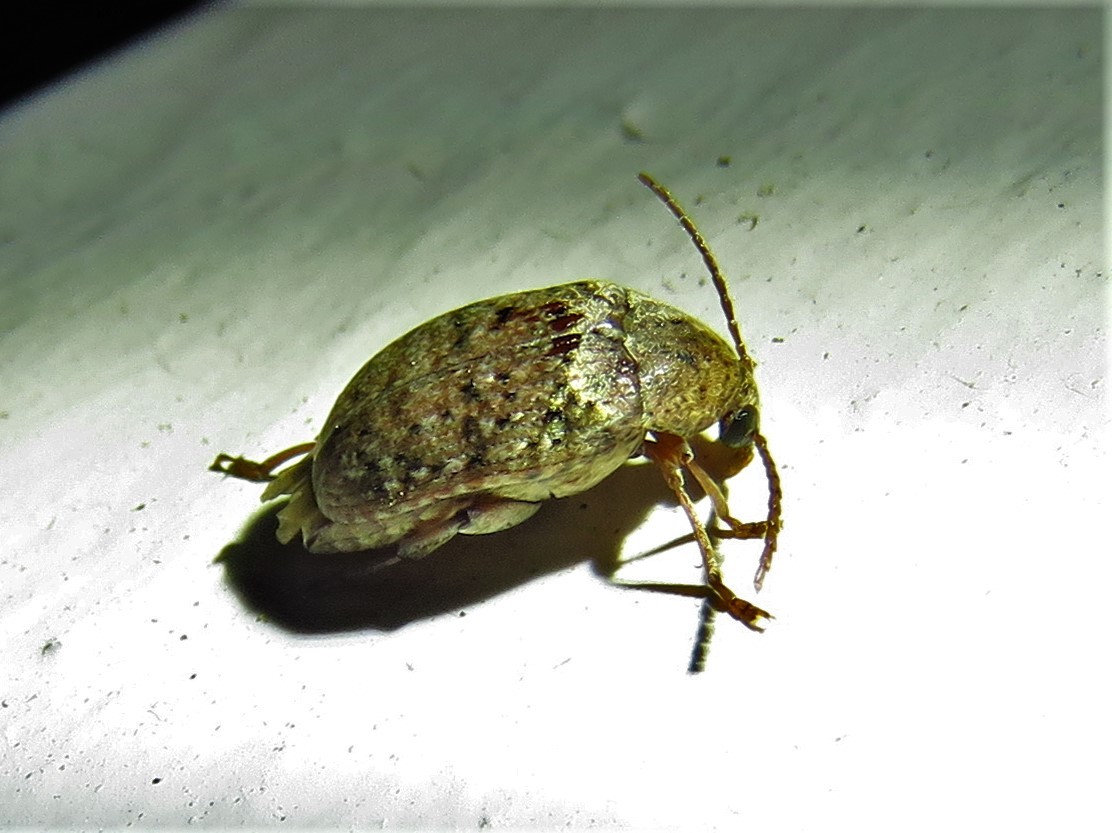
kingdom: Animalia
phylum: Arthropoda
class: Insecta
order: Coleoptera
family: Chrysomelidae
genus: Amblycerus
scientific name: Amblycerus robiniae
